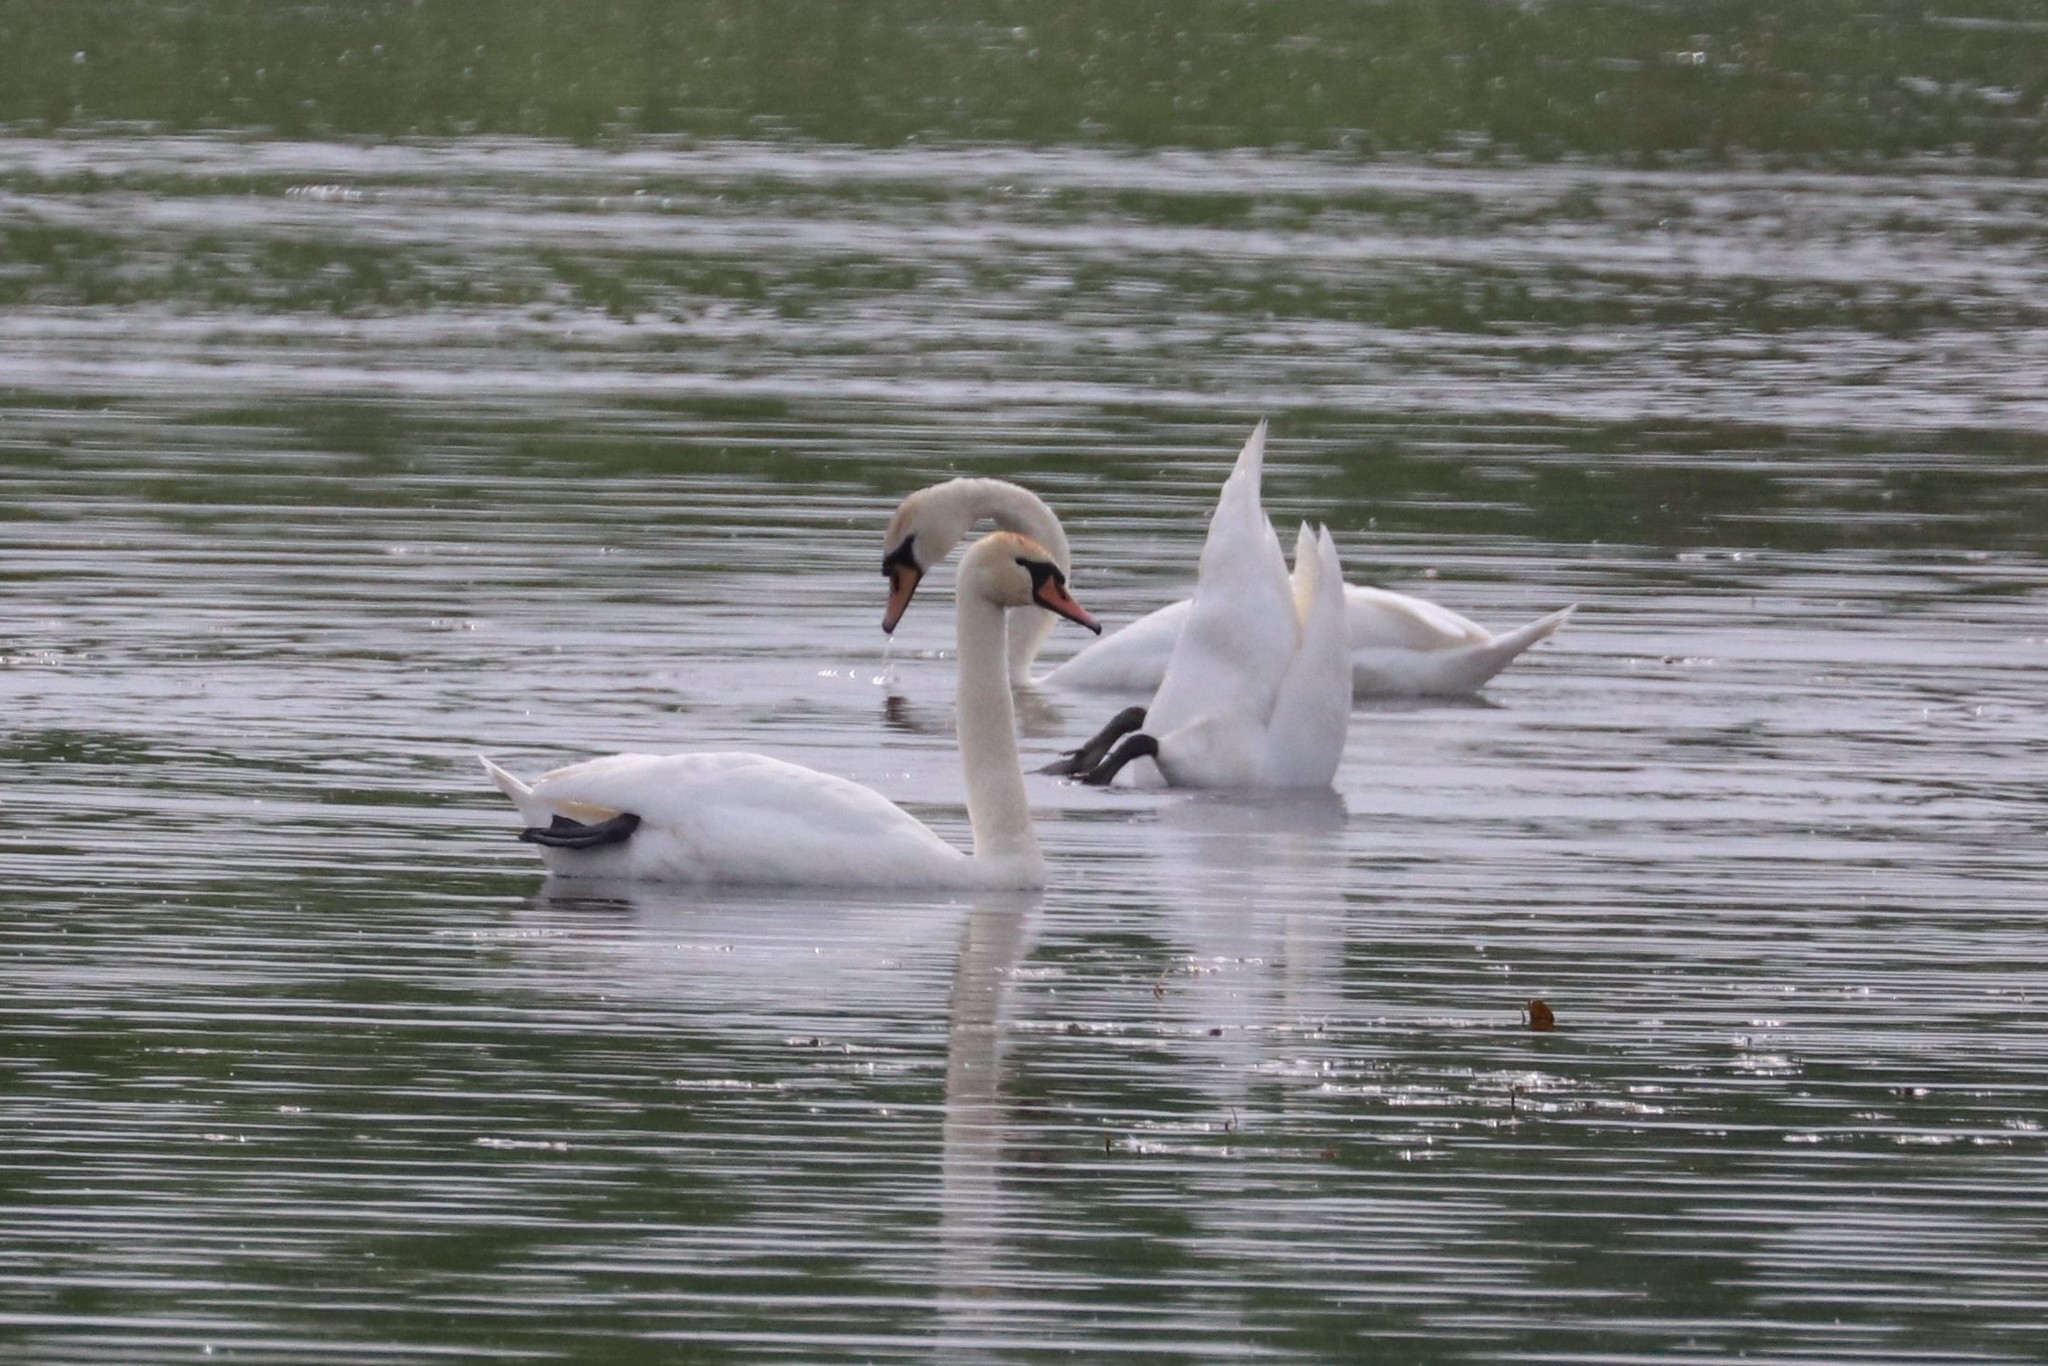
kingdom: Animalia
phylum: Chordata
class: Aves
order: Anseriformes
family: Anatidae
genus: Cygnus
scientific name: Cygnus olor
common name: Mute swan
